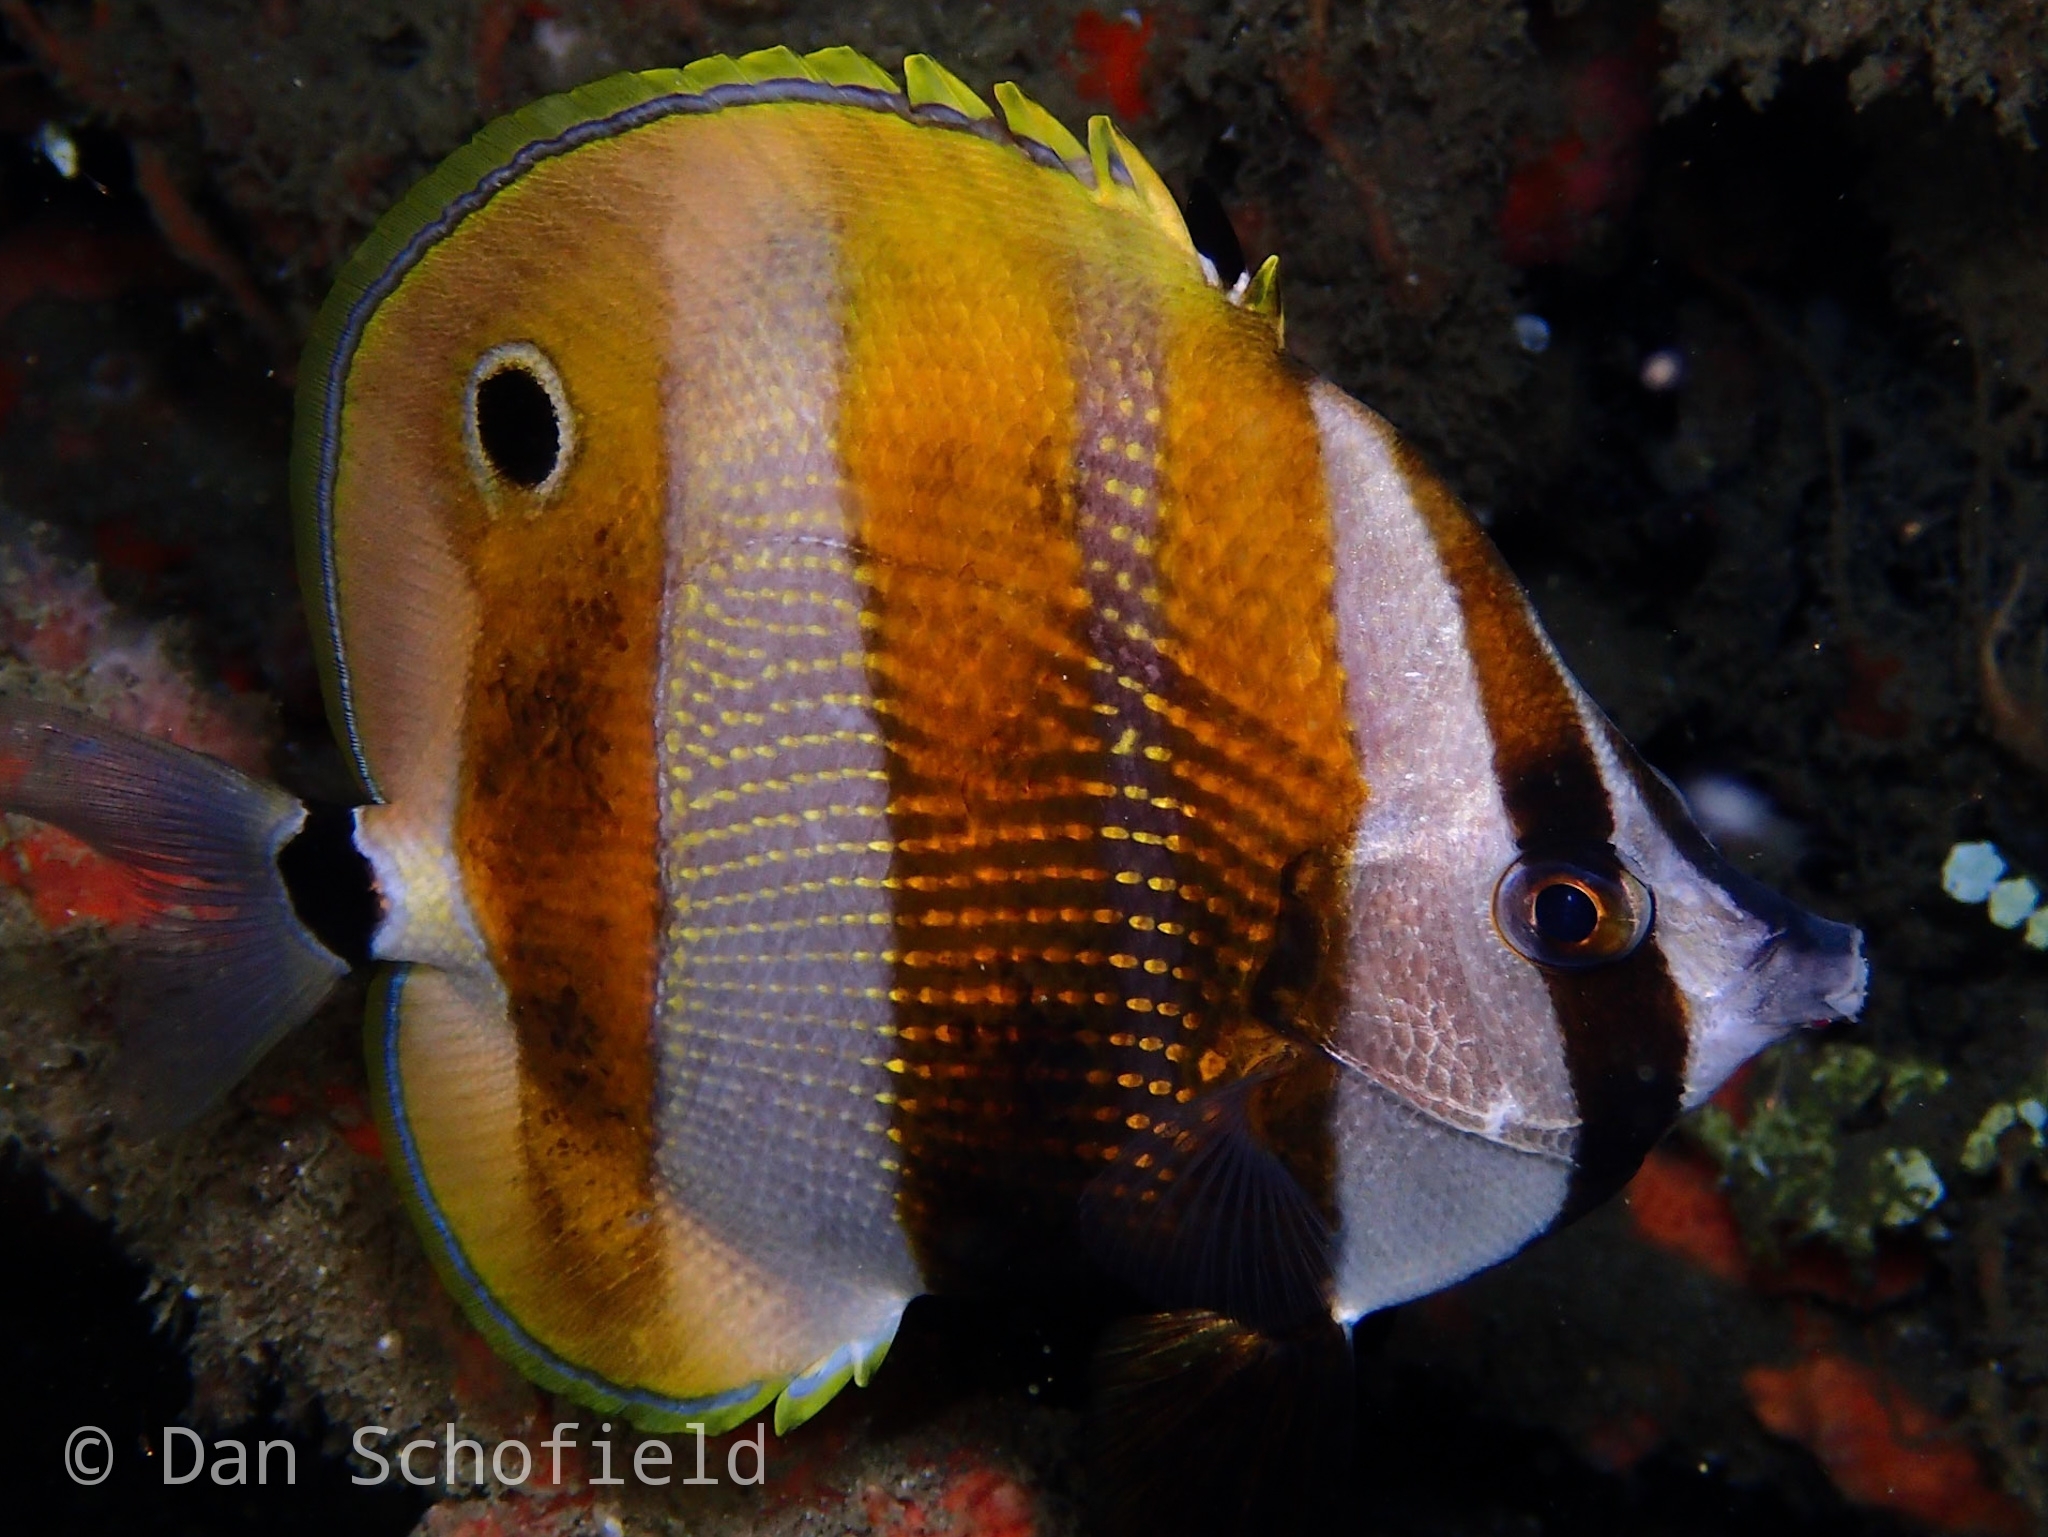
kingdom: Animalia
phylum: Chordata
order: Perciformes
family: Chaetodontidae
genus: Coradion
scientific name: Coradion chrysozonus
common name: Orange-banded coralfish
